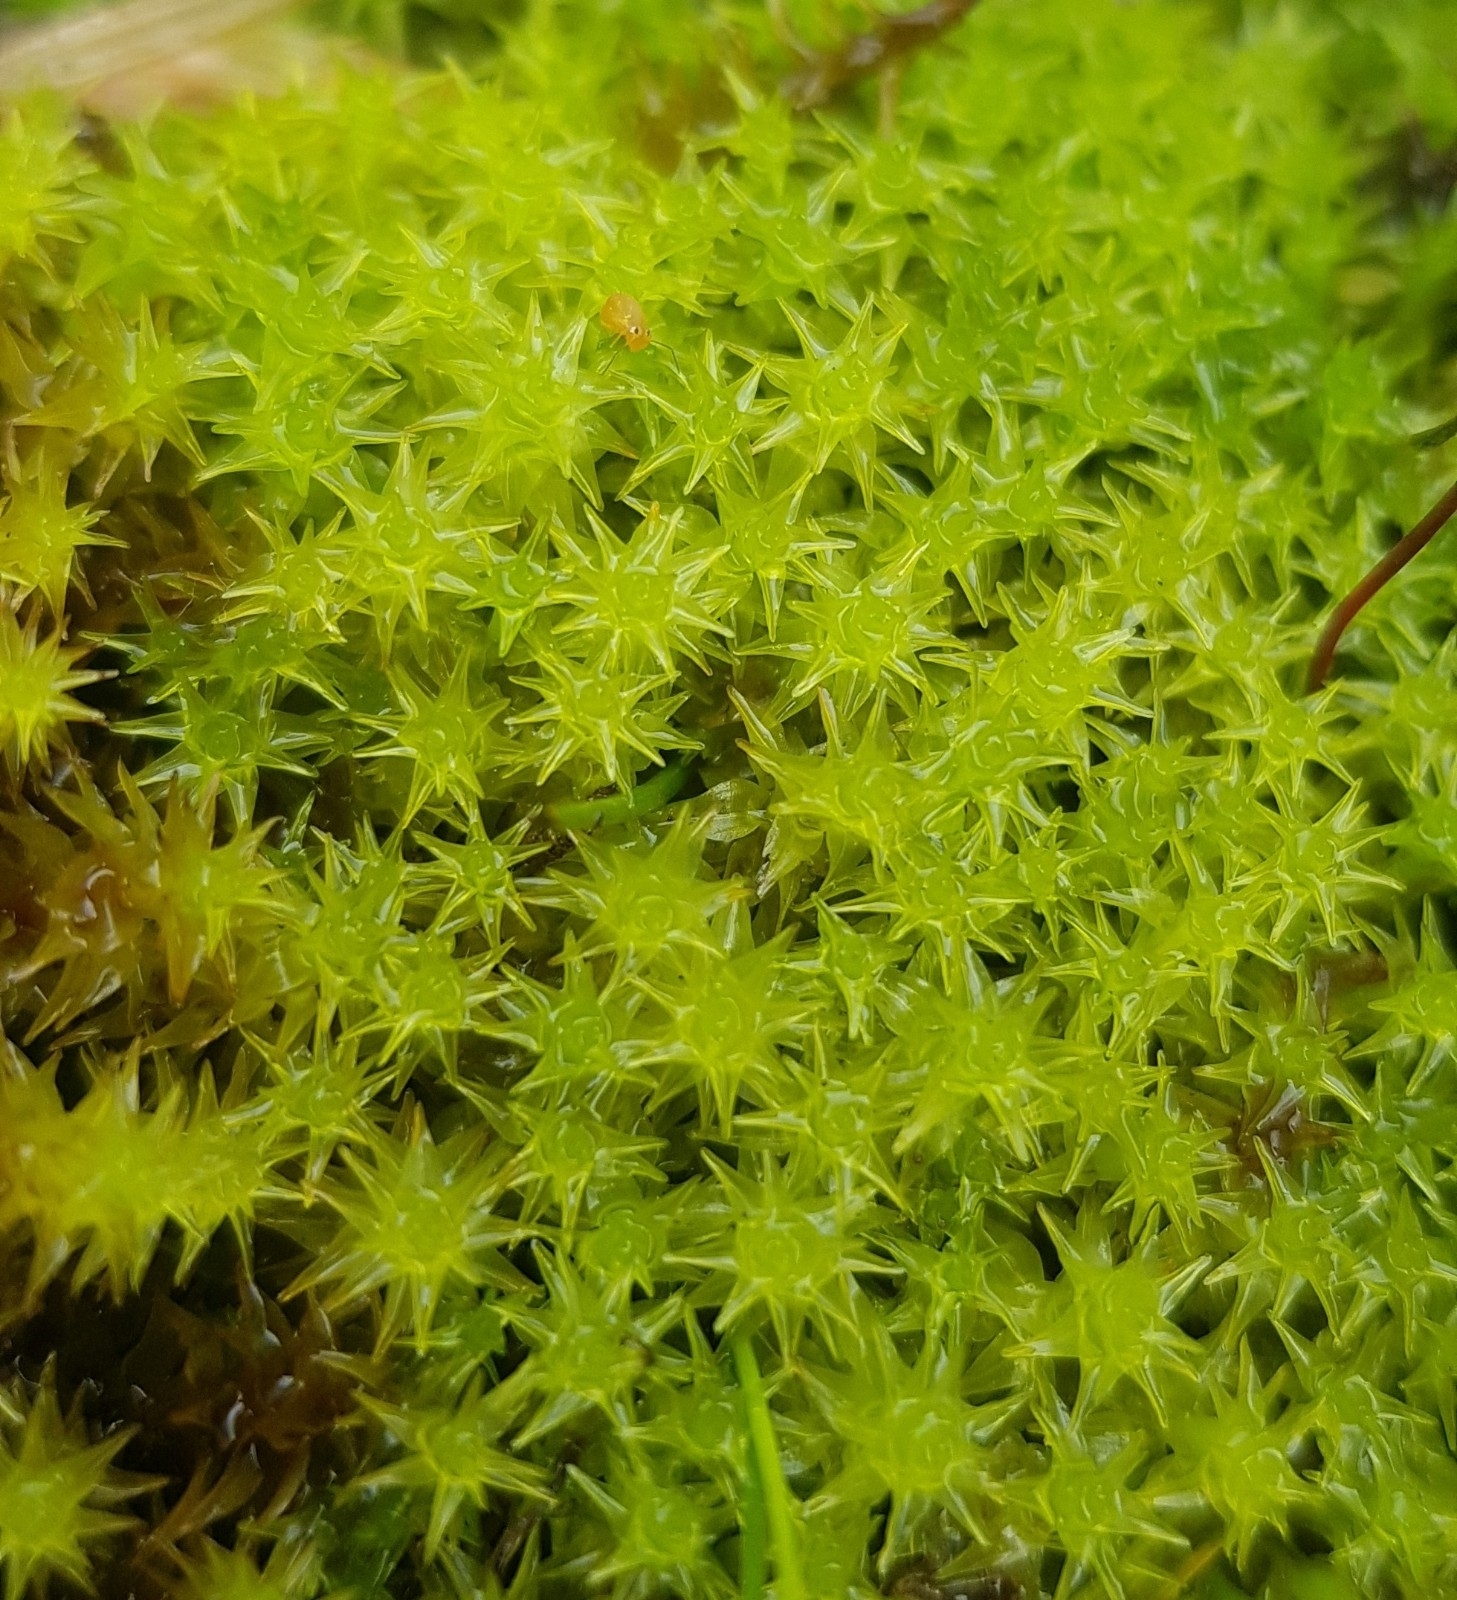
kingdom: Plantae
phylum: Bryophyta
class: Bryopsida
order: Dicranales
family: Aongstroemiaceae
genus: Diobelonella
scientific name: Diobelonella palustris
